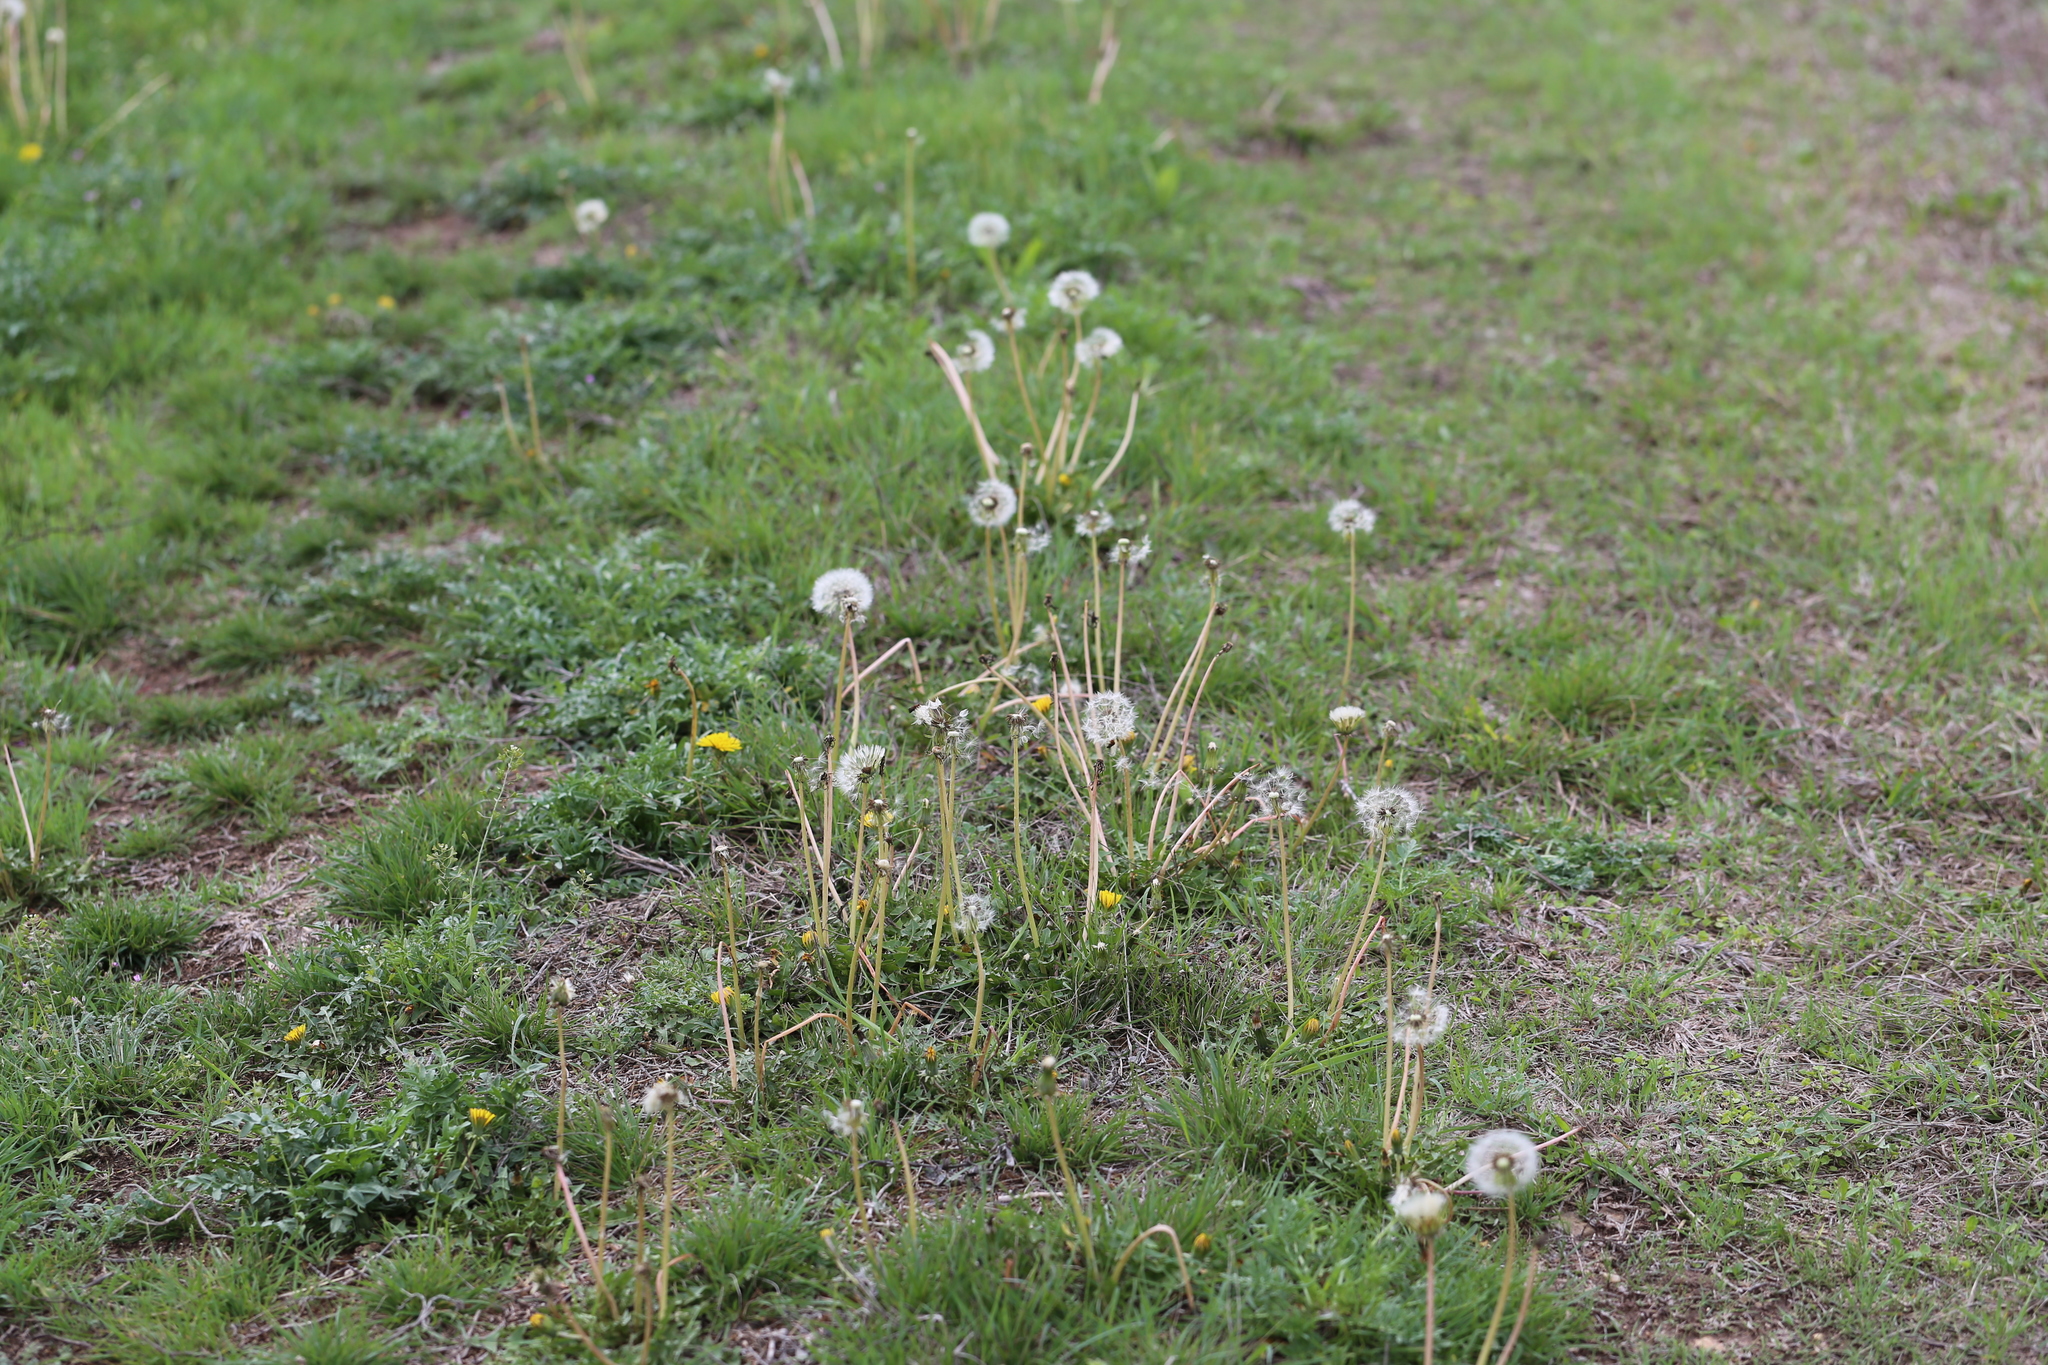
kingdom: Plantae
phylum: Tracheophyta
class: Magnoliopsida
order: Asterales
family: Asteraceae
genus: Taraxacum
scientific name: Taraxacum officinale
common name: Common dandelion
